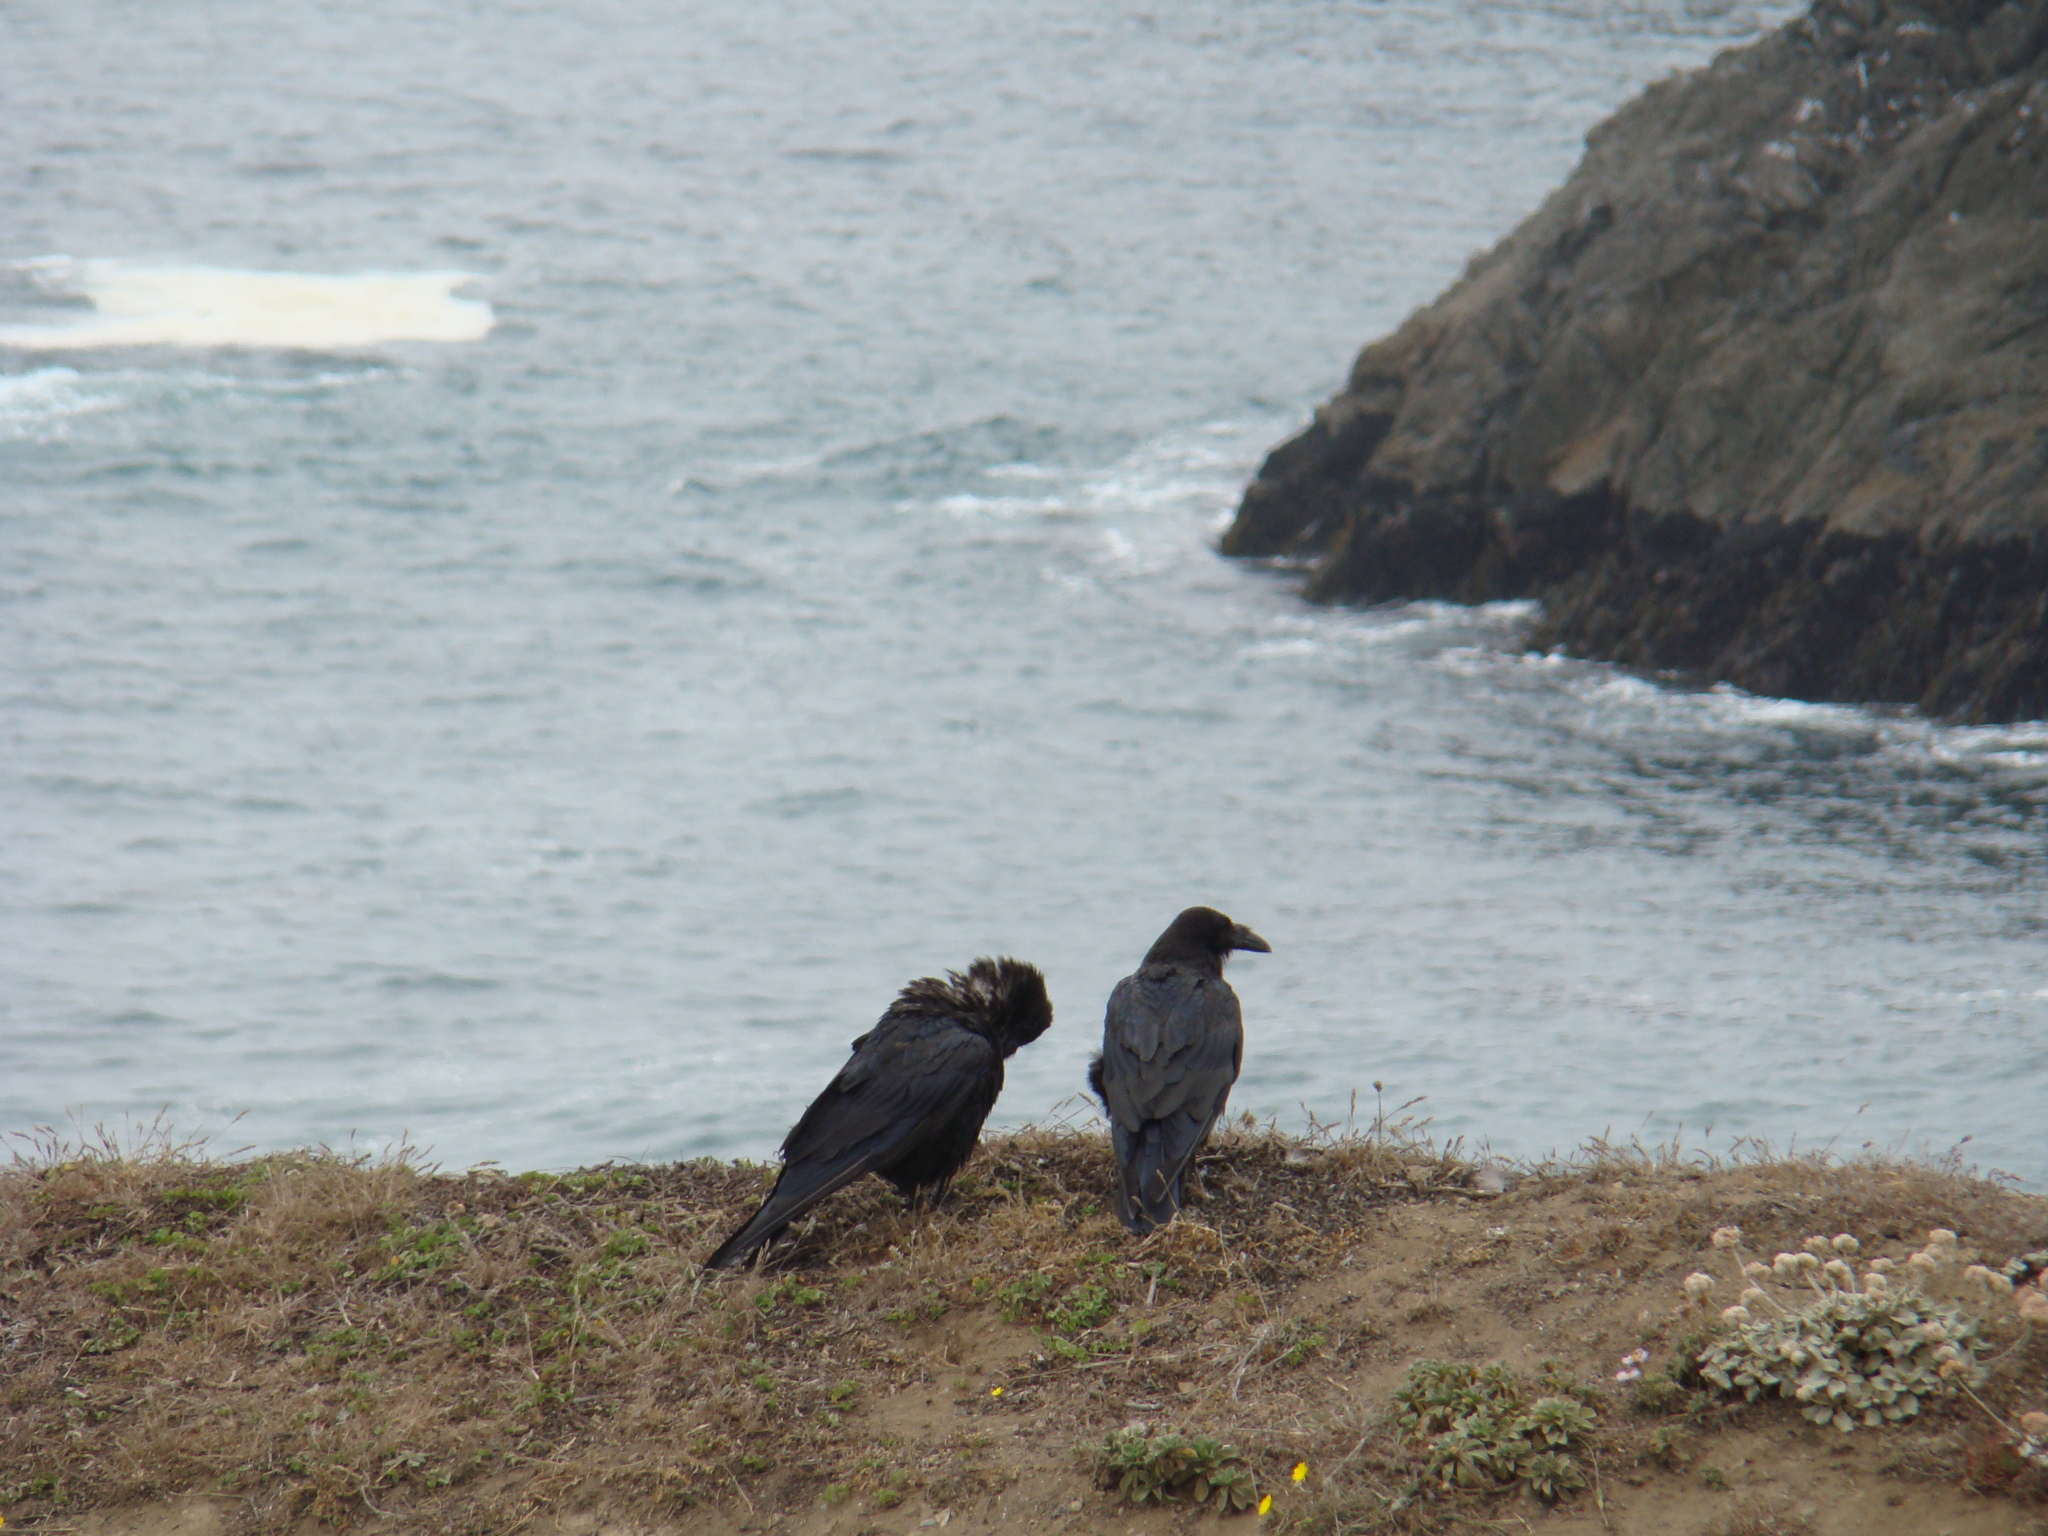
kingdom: Animalia
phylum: Chordata
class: Aves
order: Passeriformes
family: Corvidae
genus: Corvus
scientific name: Corvus corax
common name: Common raven
